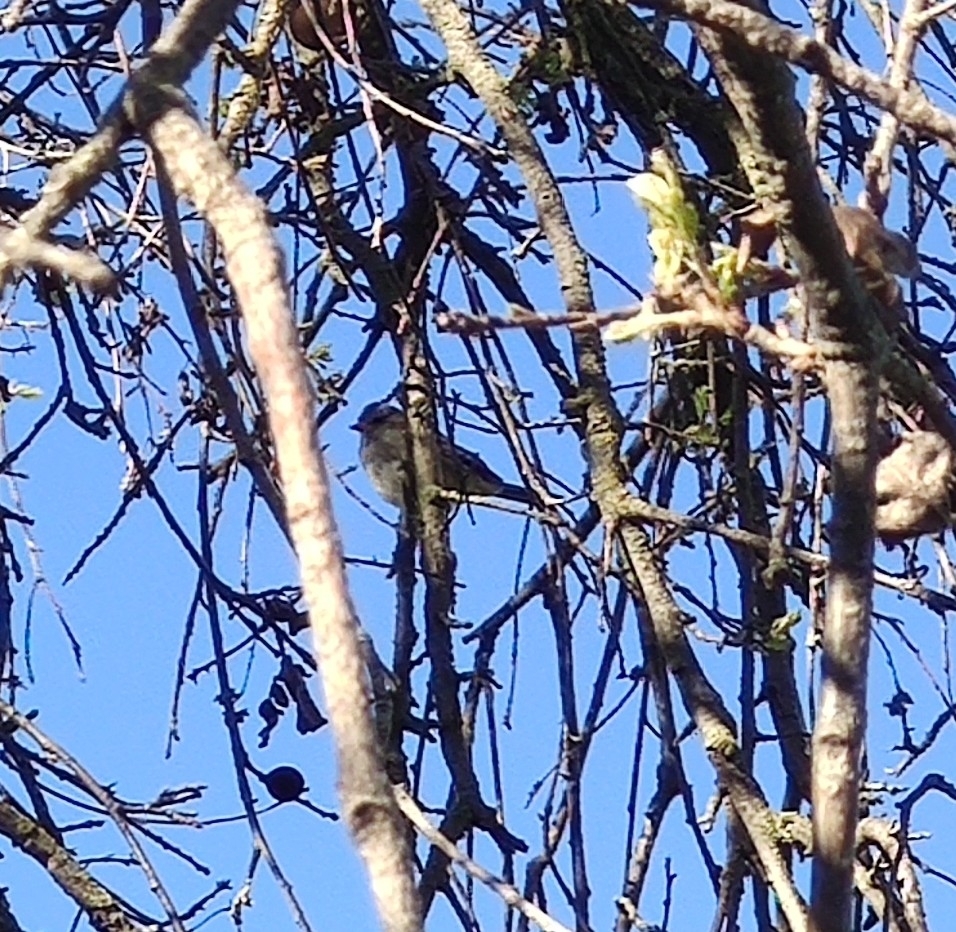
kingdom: Animalia
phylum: Chordata
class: Aves
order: Passeriformes
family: Passerellidae
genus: Zonotrichia
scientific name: Zonotrichia leucophrys
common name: White-crowned sparrow
